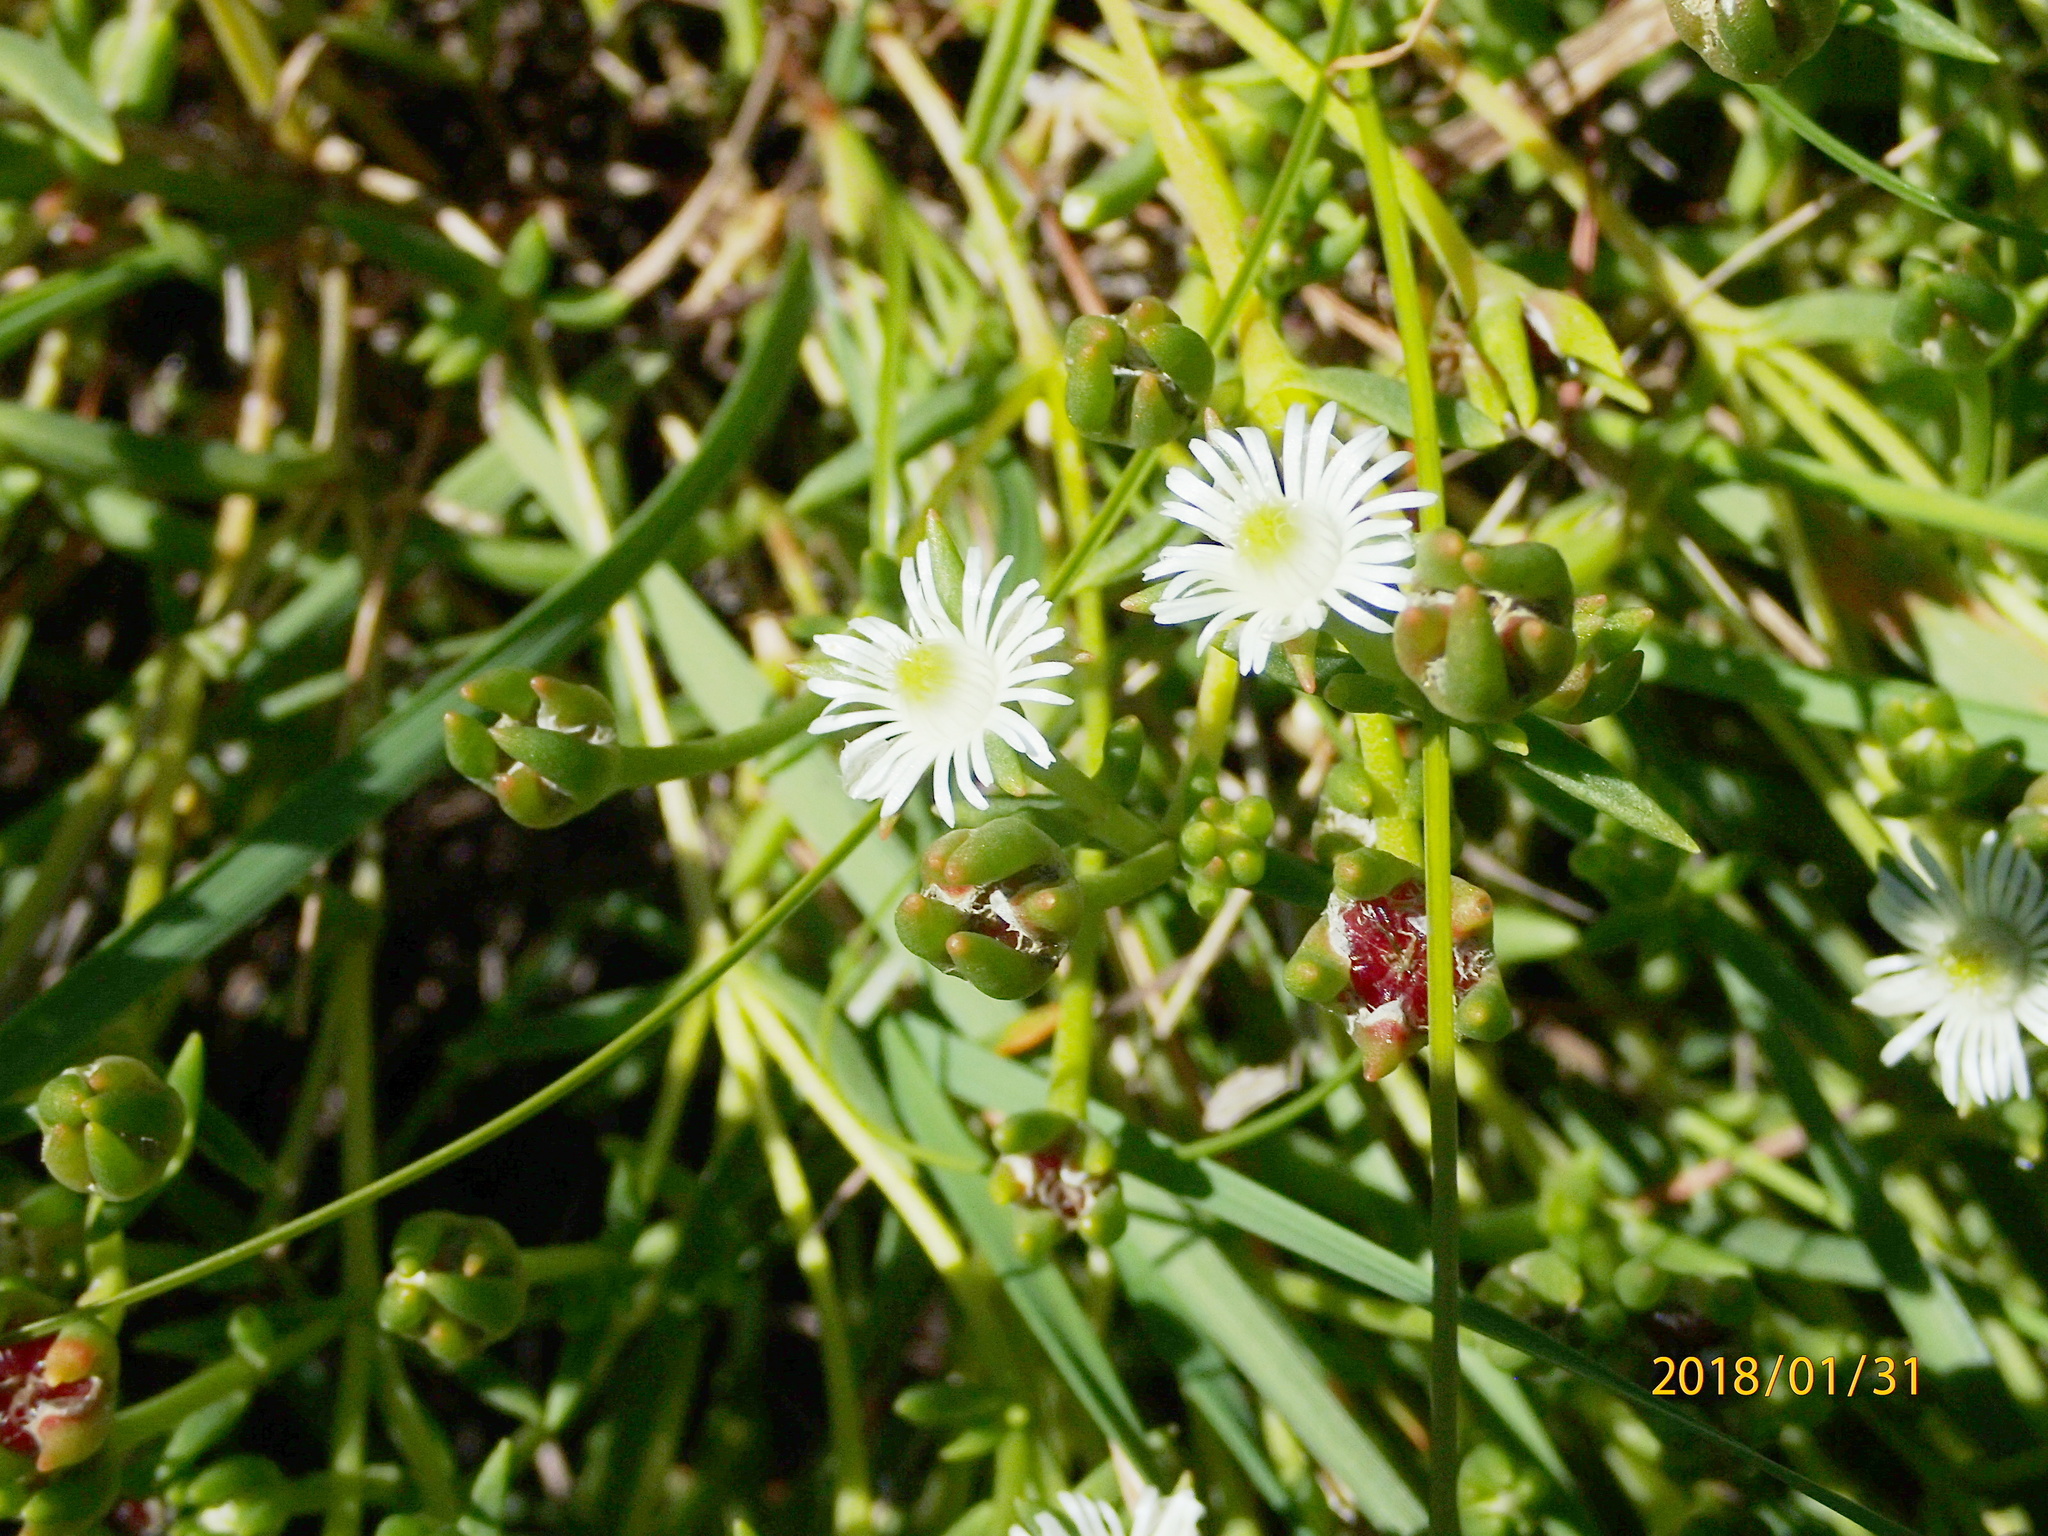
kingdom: Plantae
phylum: Tracheophyta
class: Magnoliopsida
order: Caryophyllales
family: Aizoaceae
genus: Delosperma
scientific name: Delosperma hirtum
